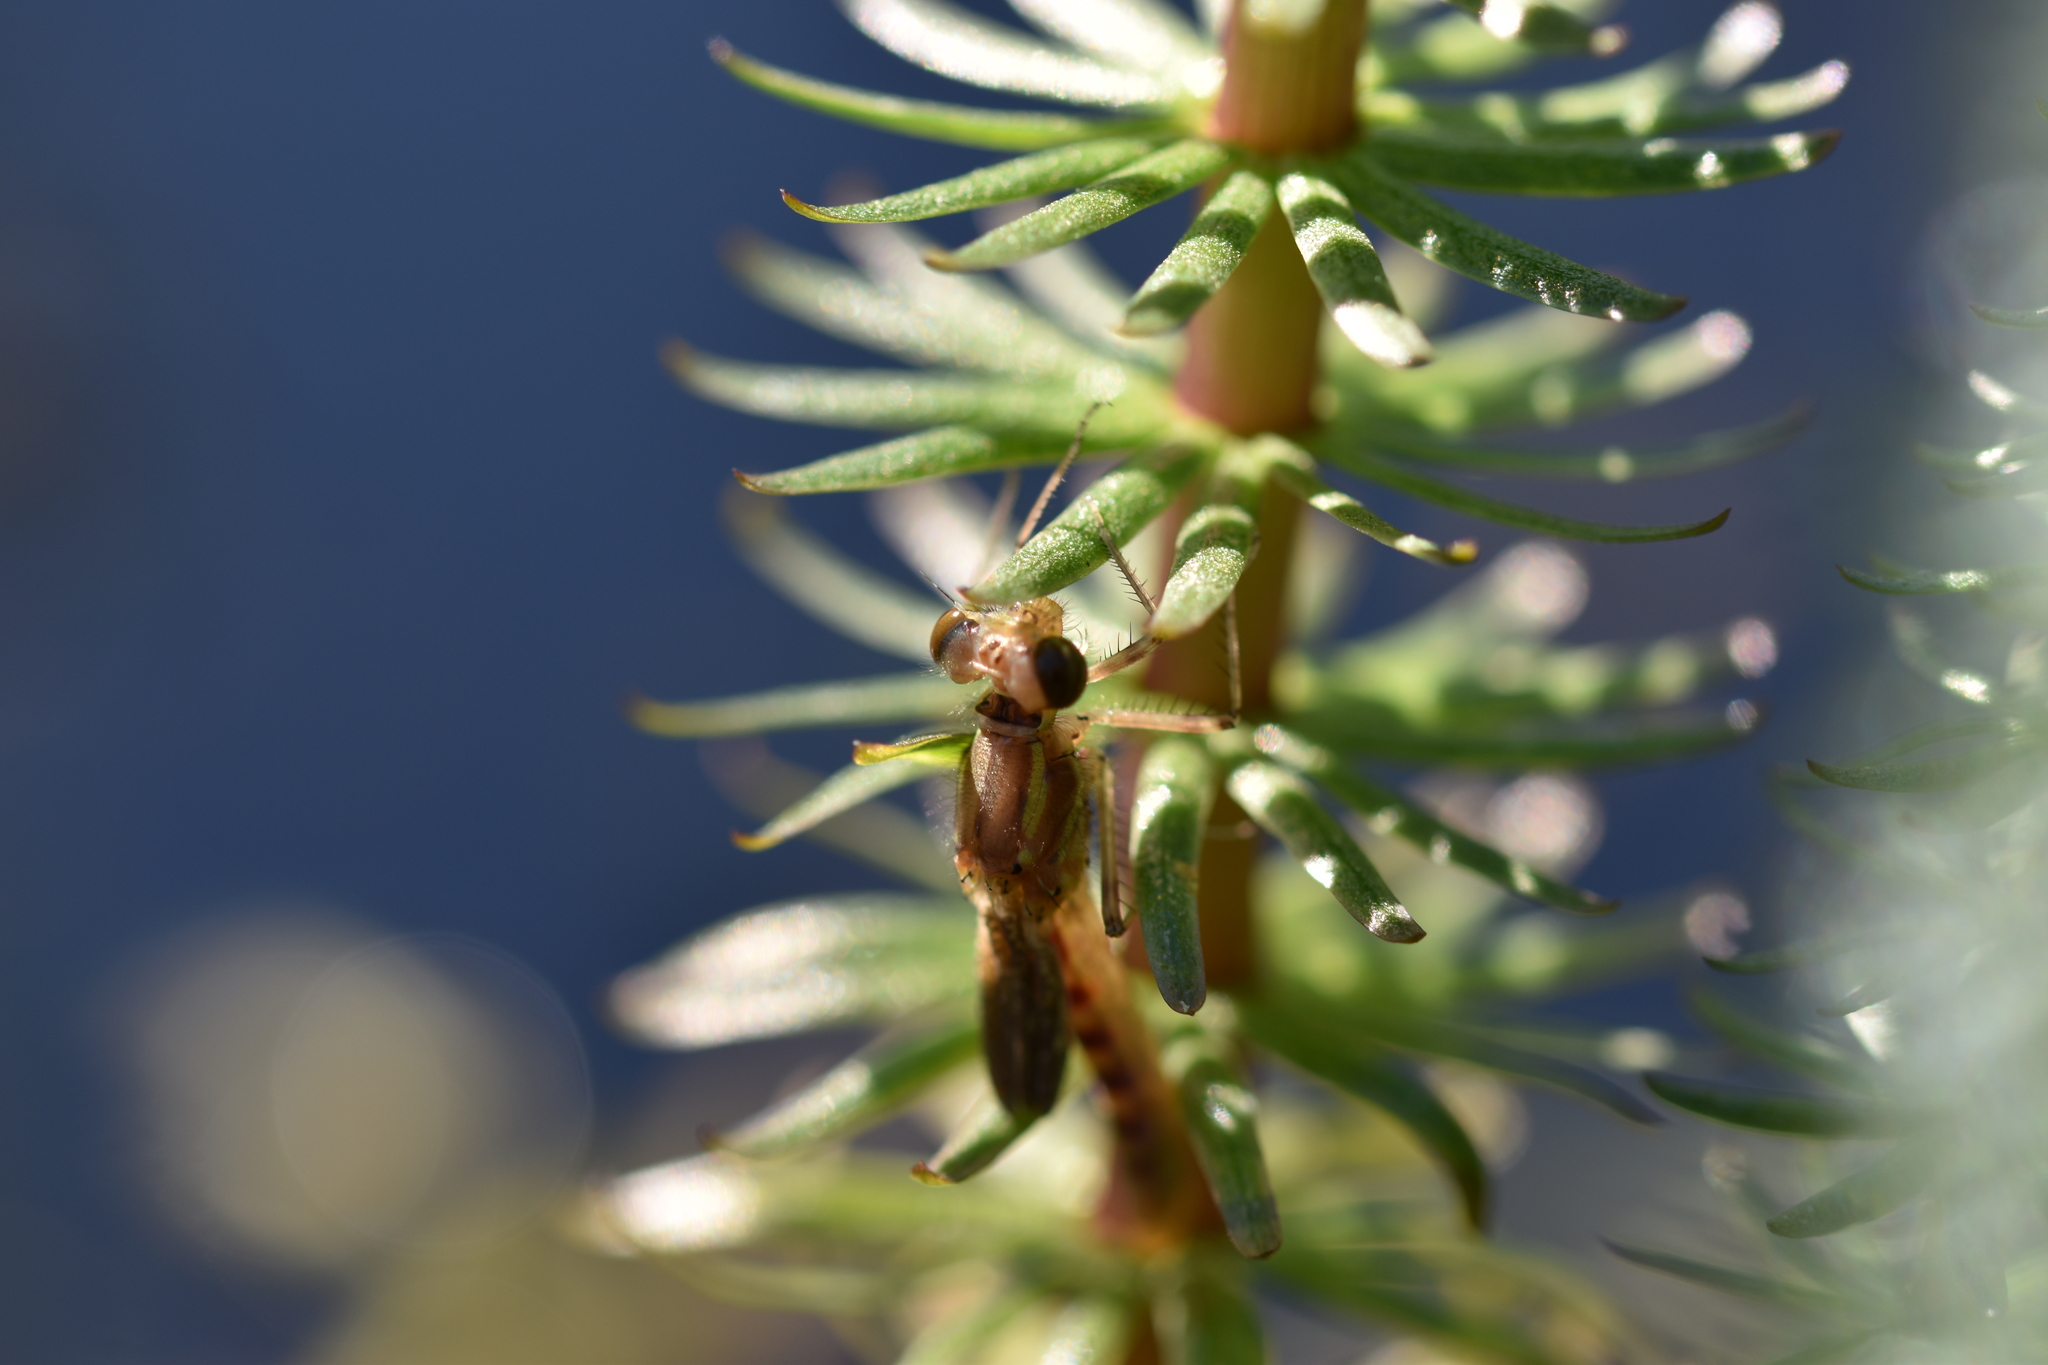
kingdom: Animalia
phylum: Arthropoda
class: Insecta
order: Odonata
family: Coenagrionidae
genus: Pyrrhosoma
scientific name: Pyrrhosoma nymphula
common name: Large red damsel
